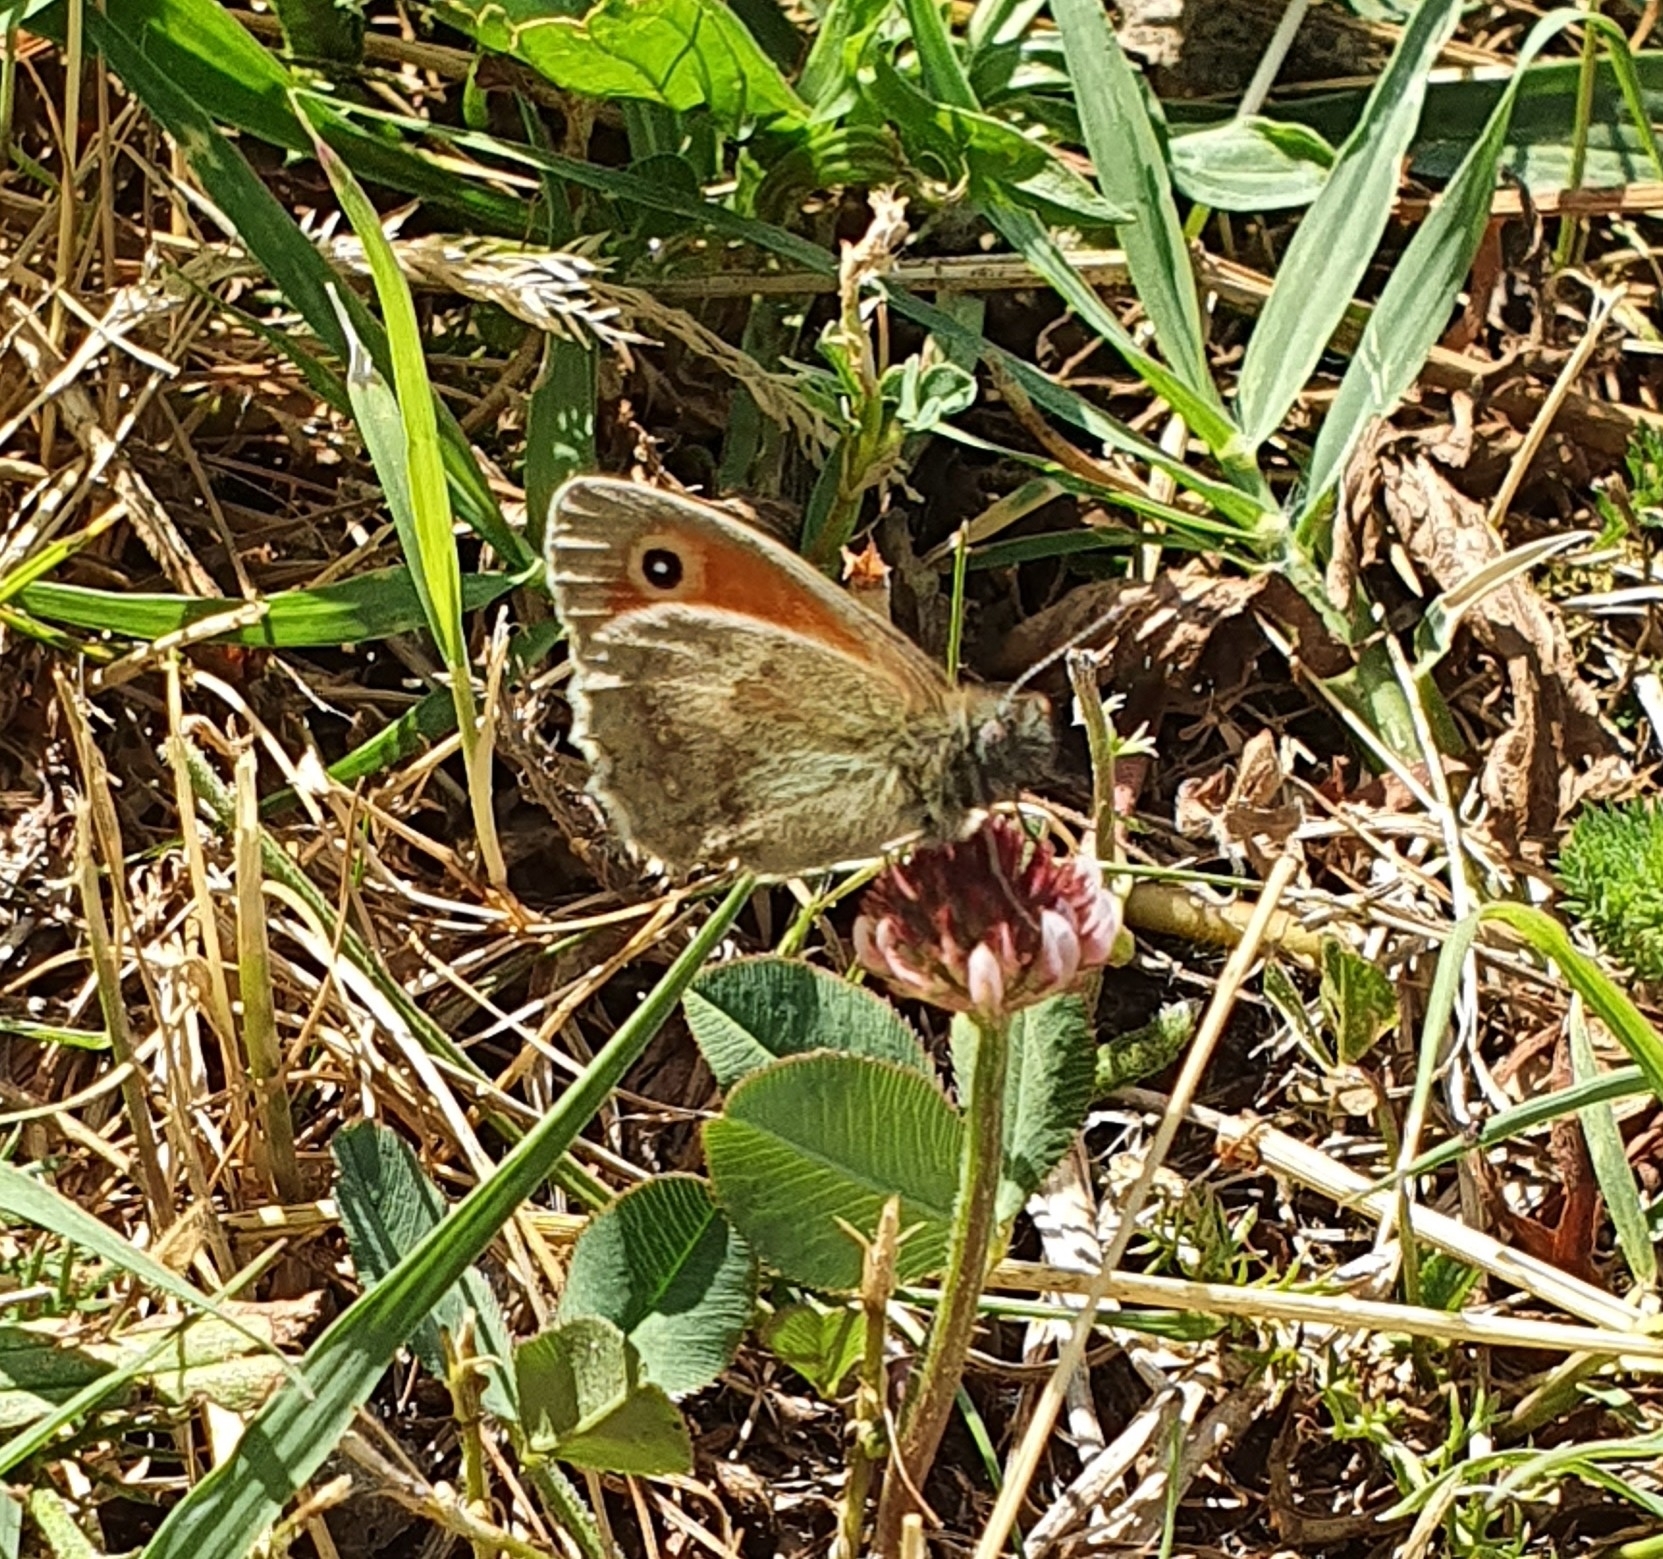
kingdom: Animalia
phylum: Arthropoda
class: Insecta
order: Lepidoptera
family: Nymphalidae
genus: Coenonympha
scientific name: Coenonympha pamphilus
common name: Small heath
